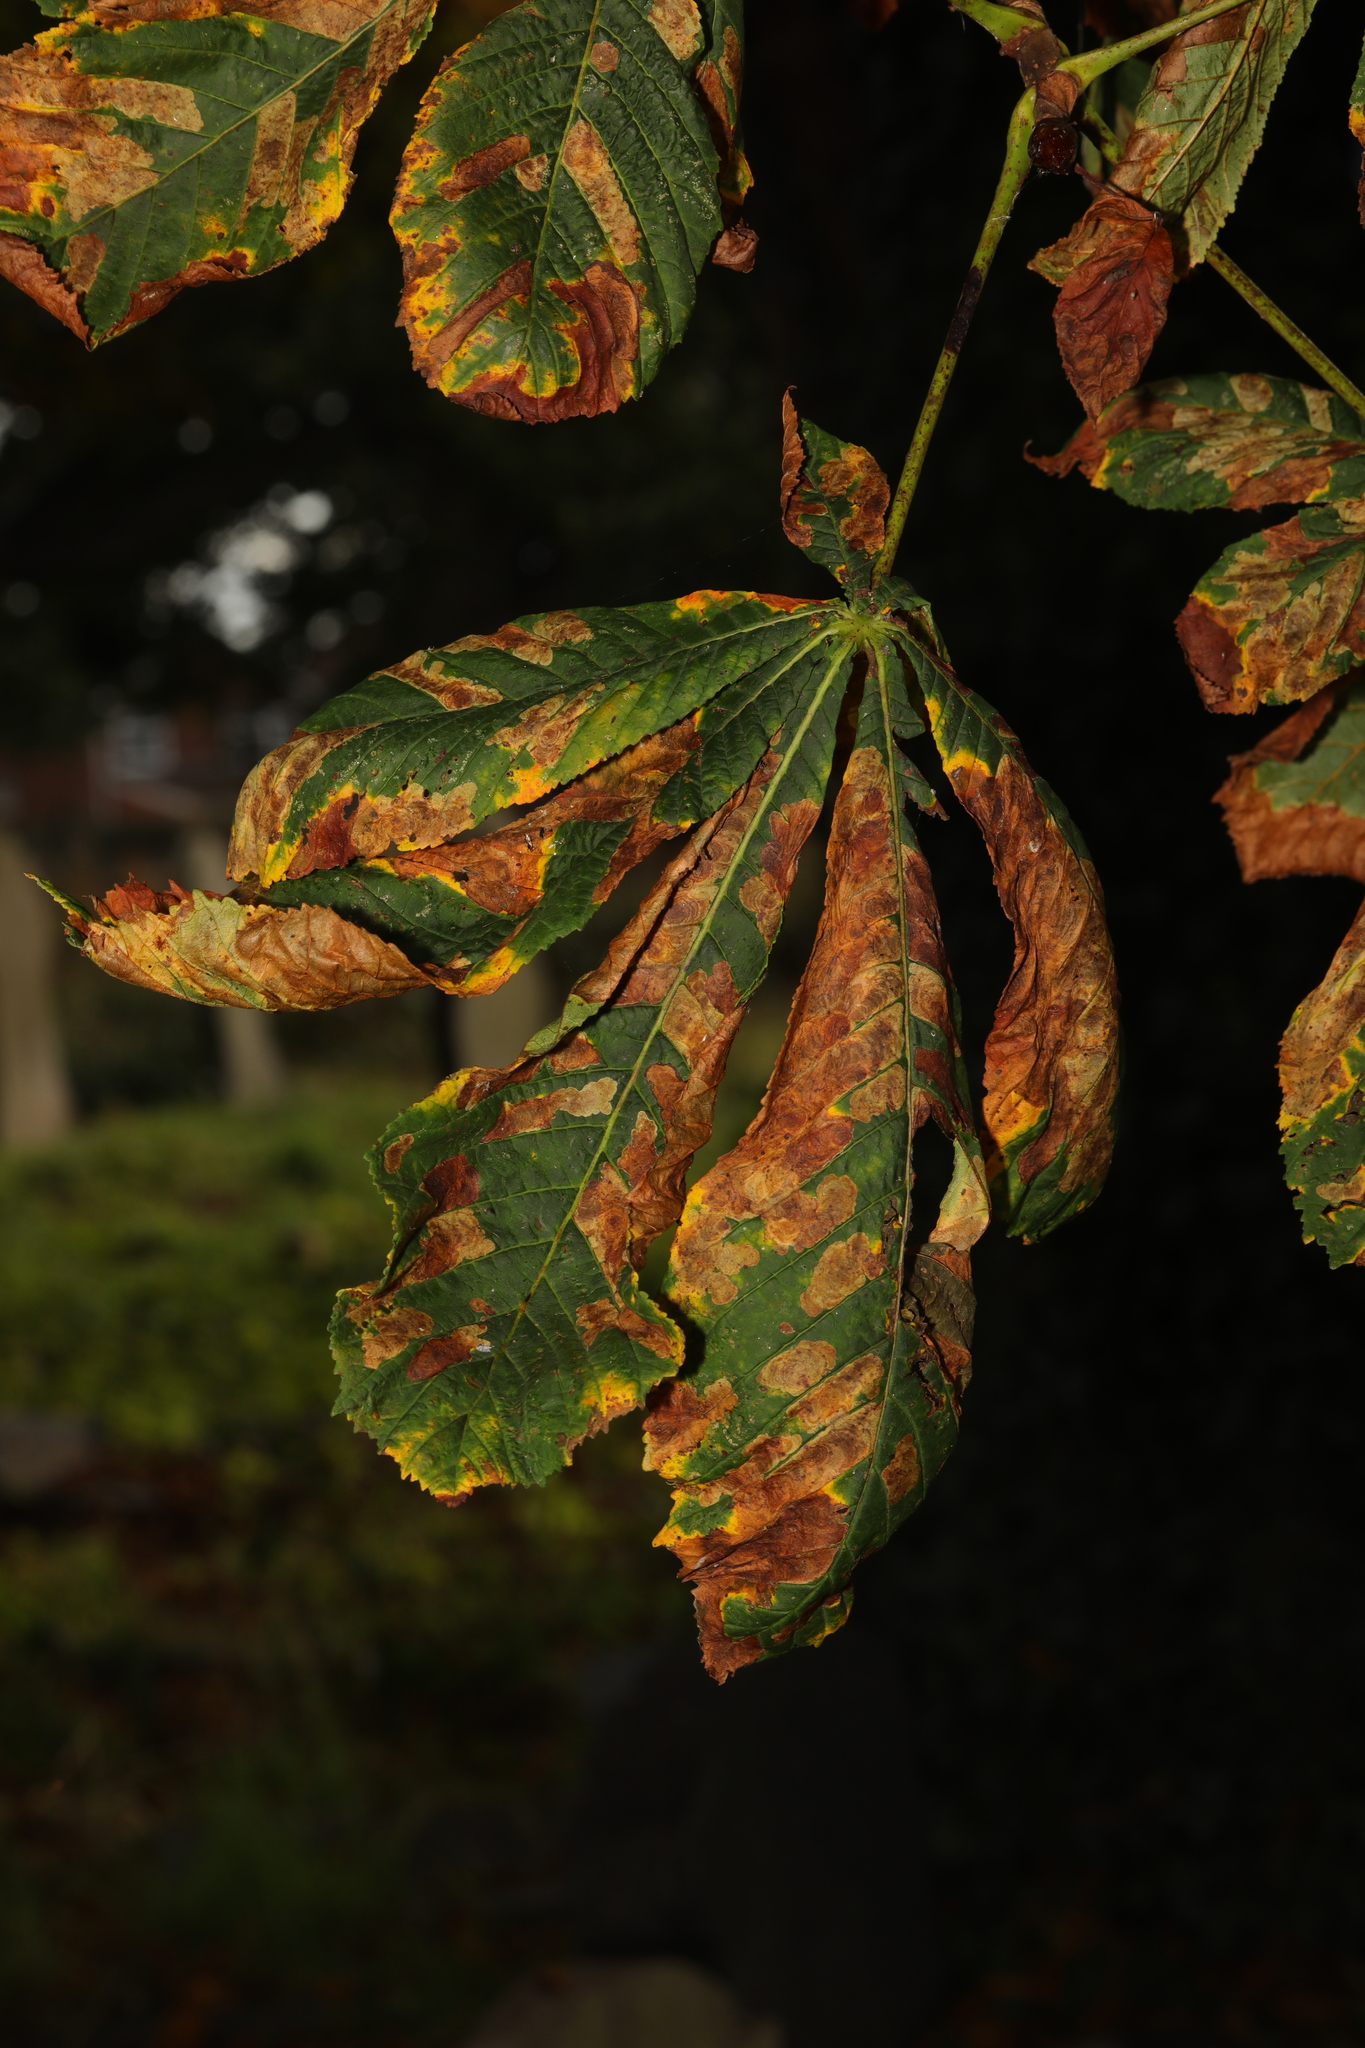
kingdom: Plantae
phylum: Tracheophyta
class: Magnoliopsida
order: Sapindales
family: Sapindaceae
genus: Aesculus
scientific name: Aesculus hippocastanum
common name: Horse-chestnut
